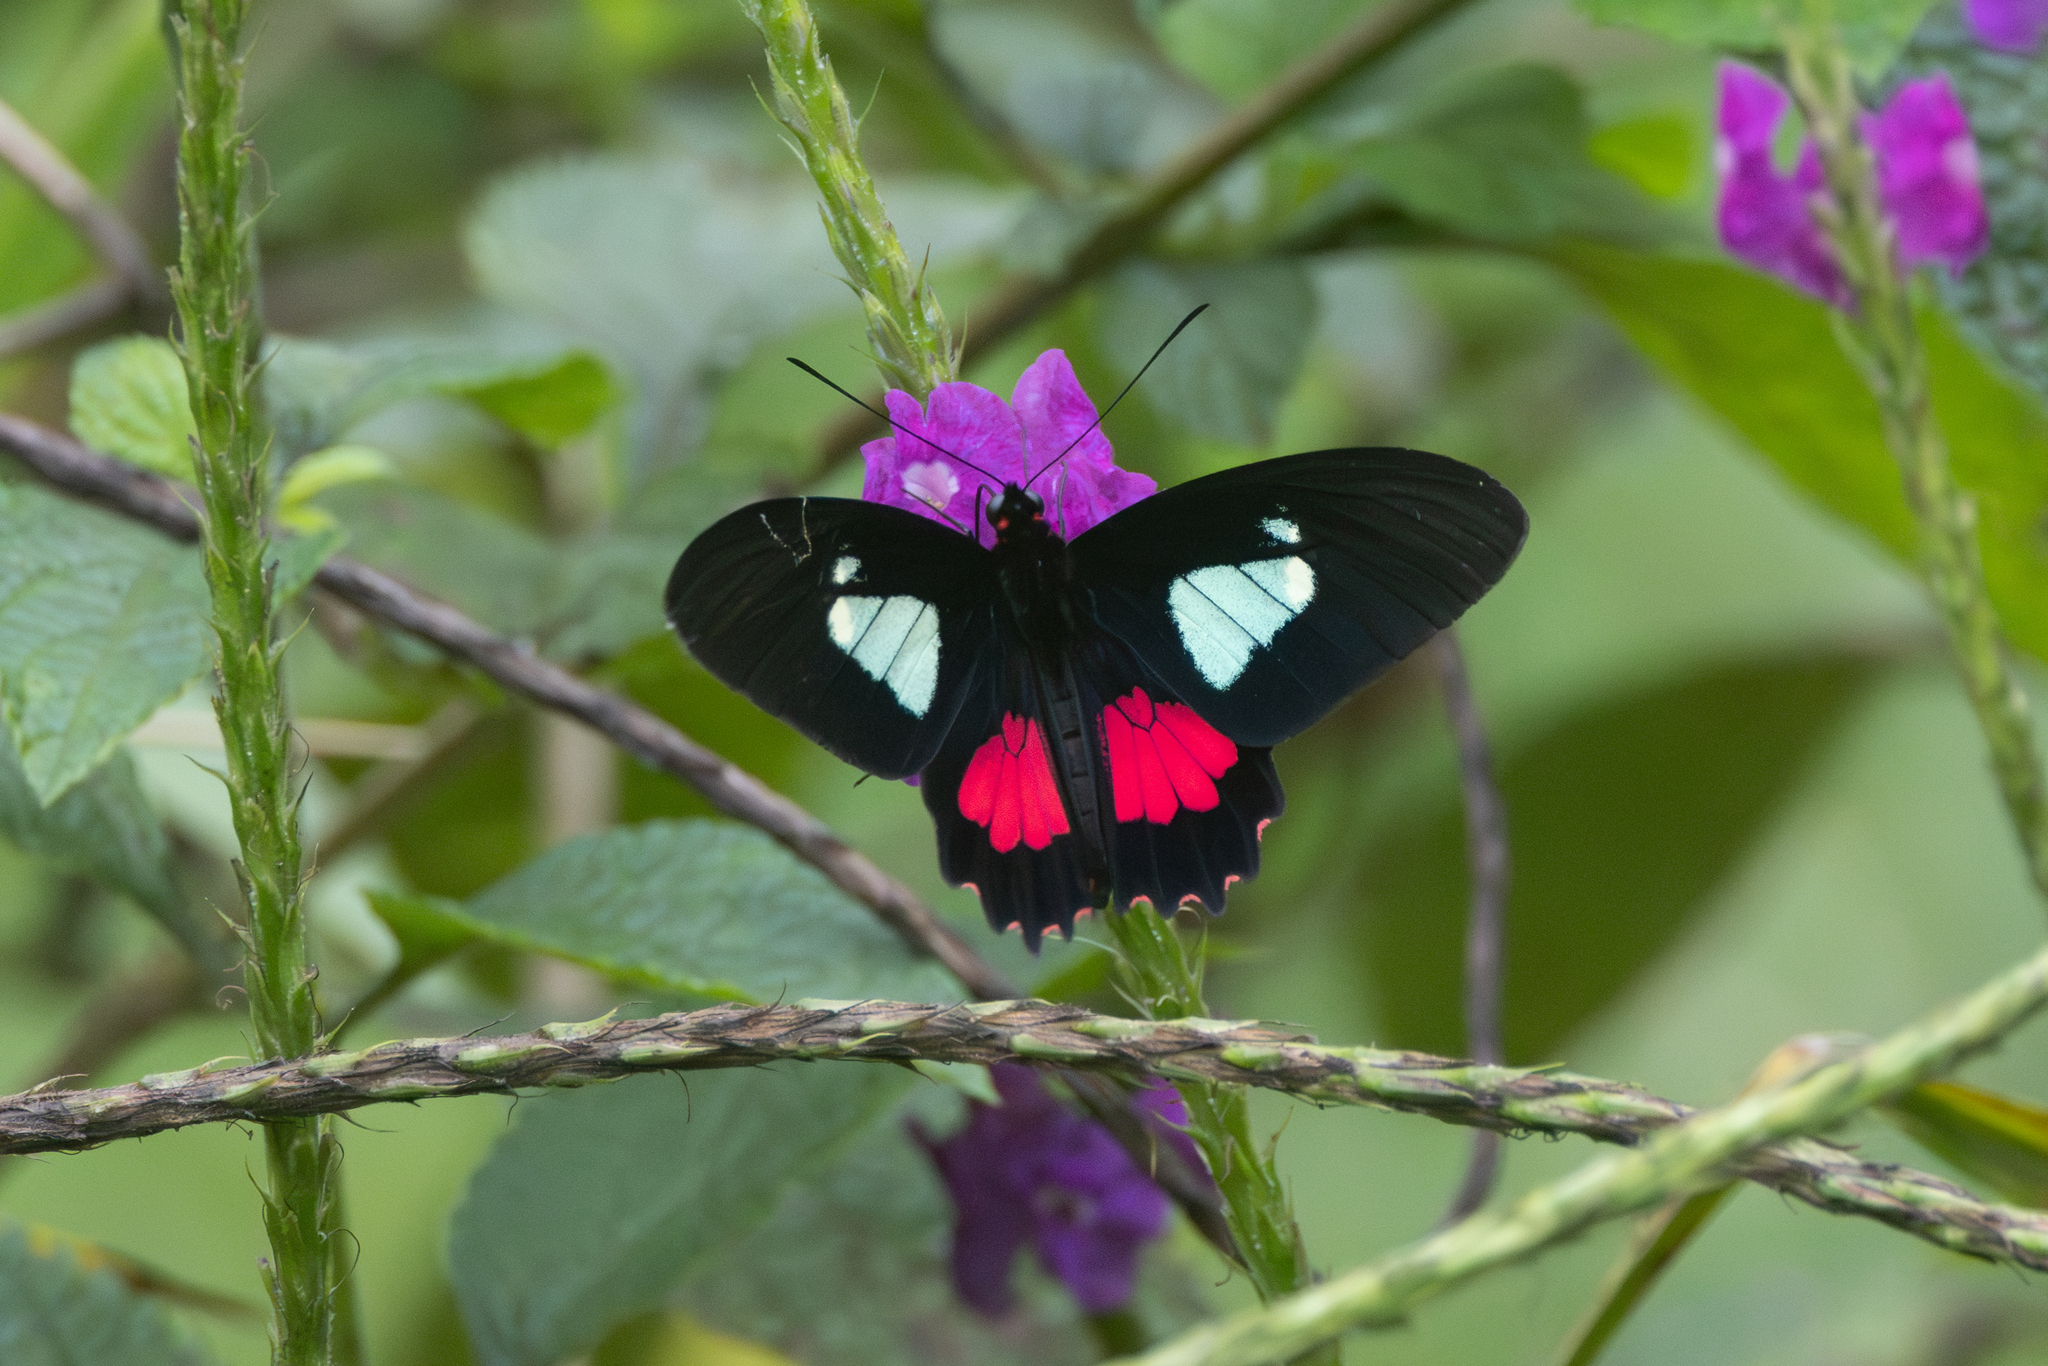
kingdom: Animalia
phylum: Arthropoda
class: Insecta
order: Lepidoptera
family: Papilionidae
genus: Parides
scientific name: Parides eurimedes
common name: True cattleheart
